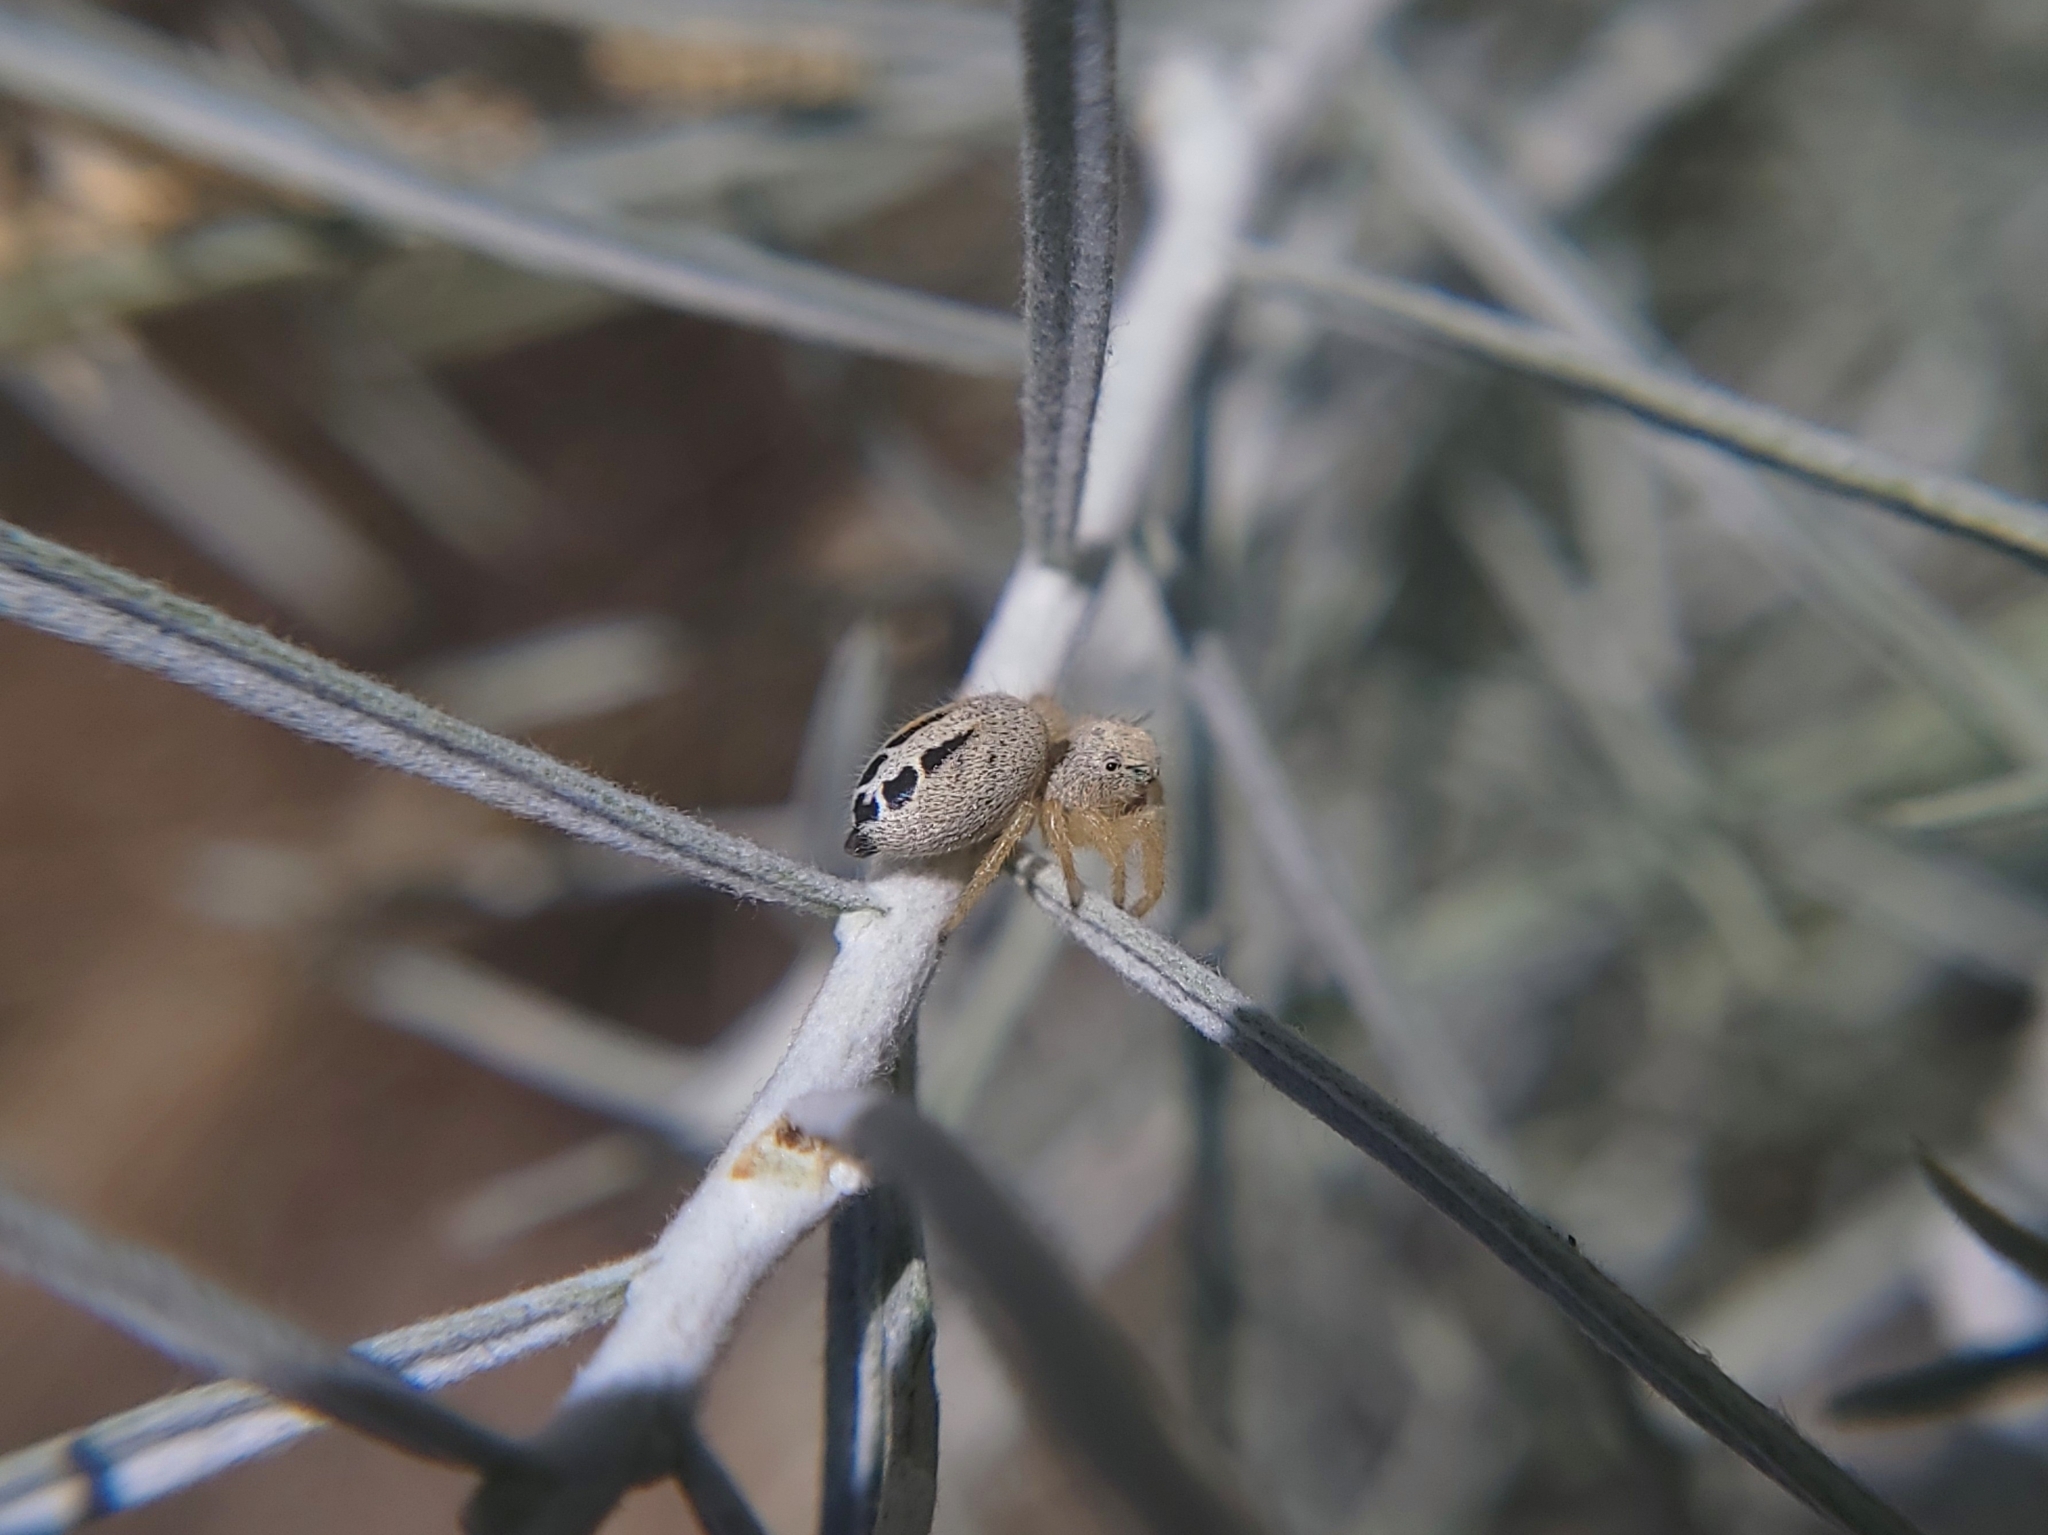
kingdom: Animalia
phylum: Arthropoda
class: Arachnida
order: Araneae
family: Salticidae
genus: Phidippus
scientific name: Phidippus nikites
